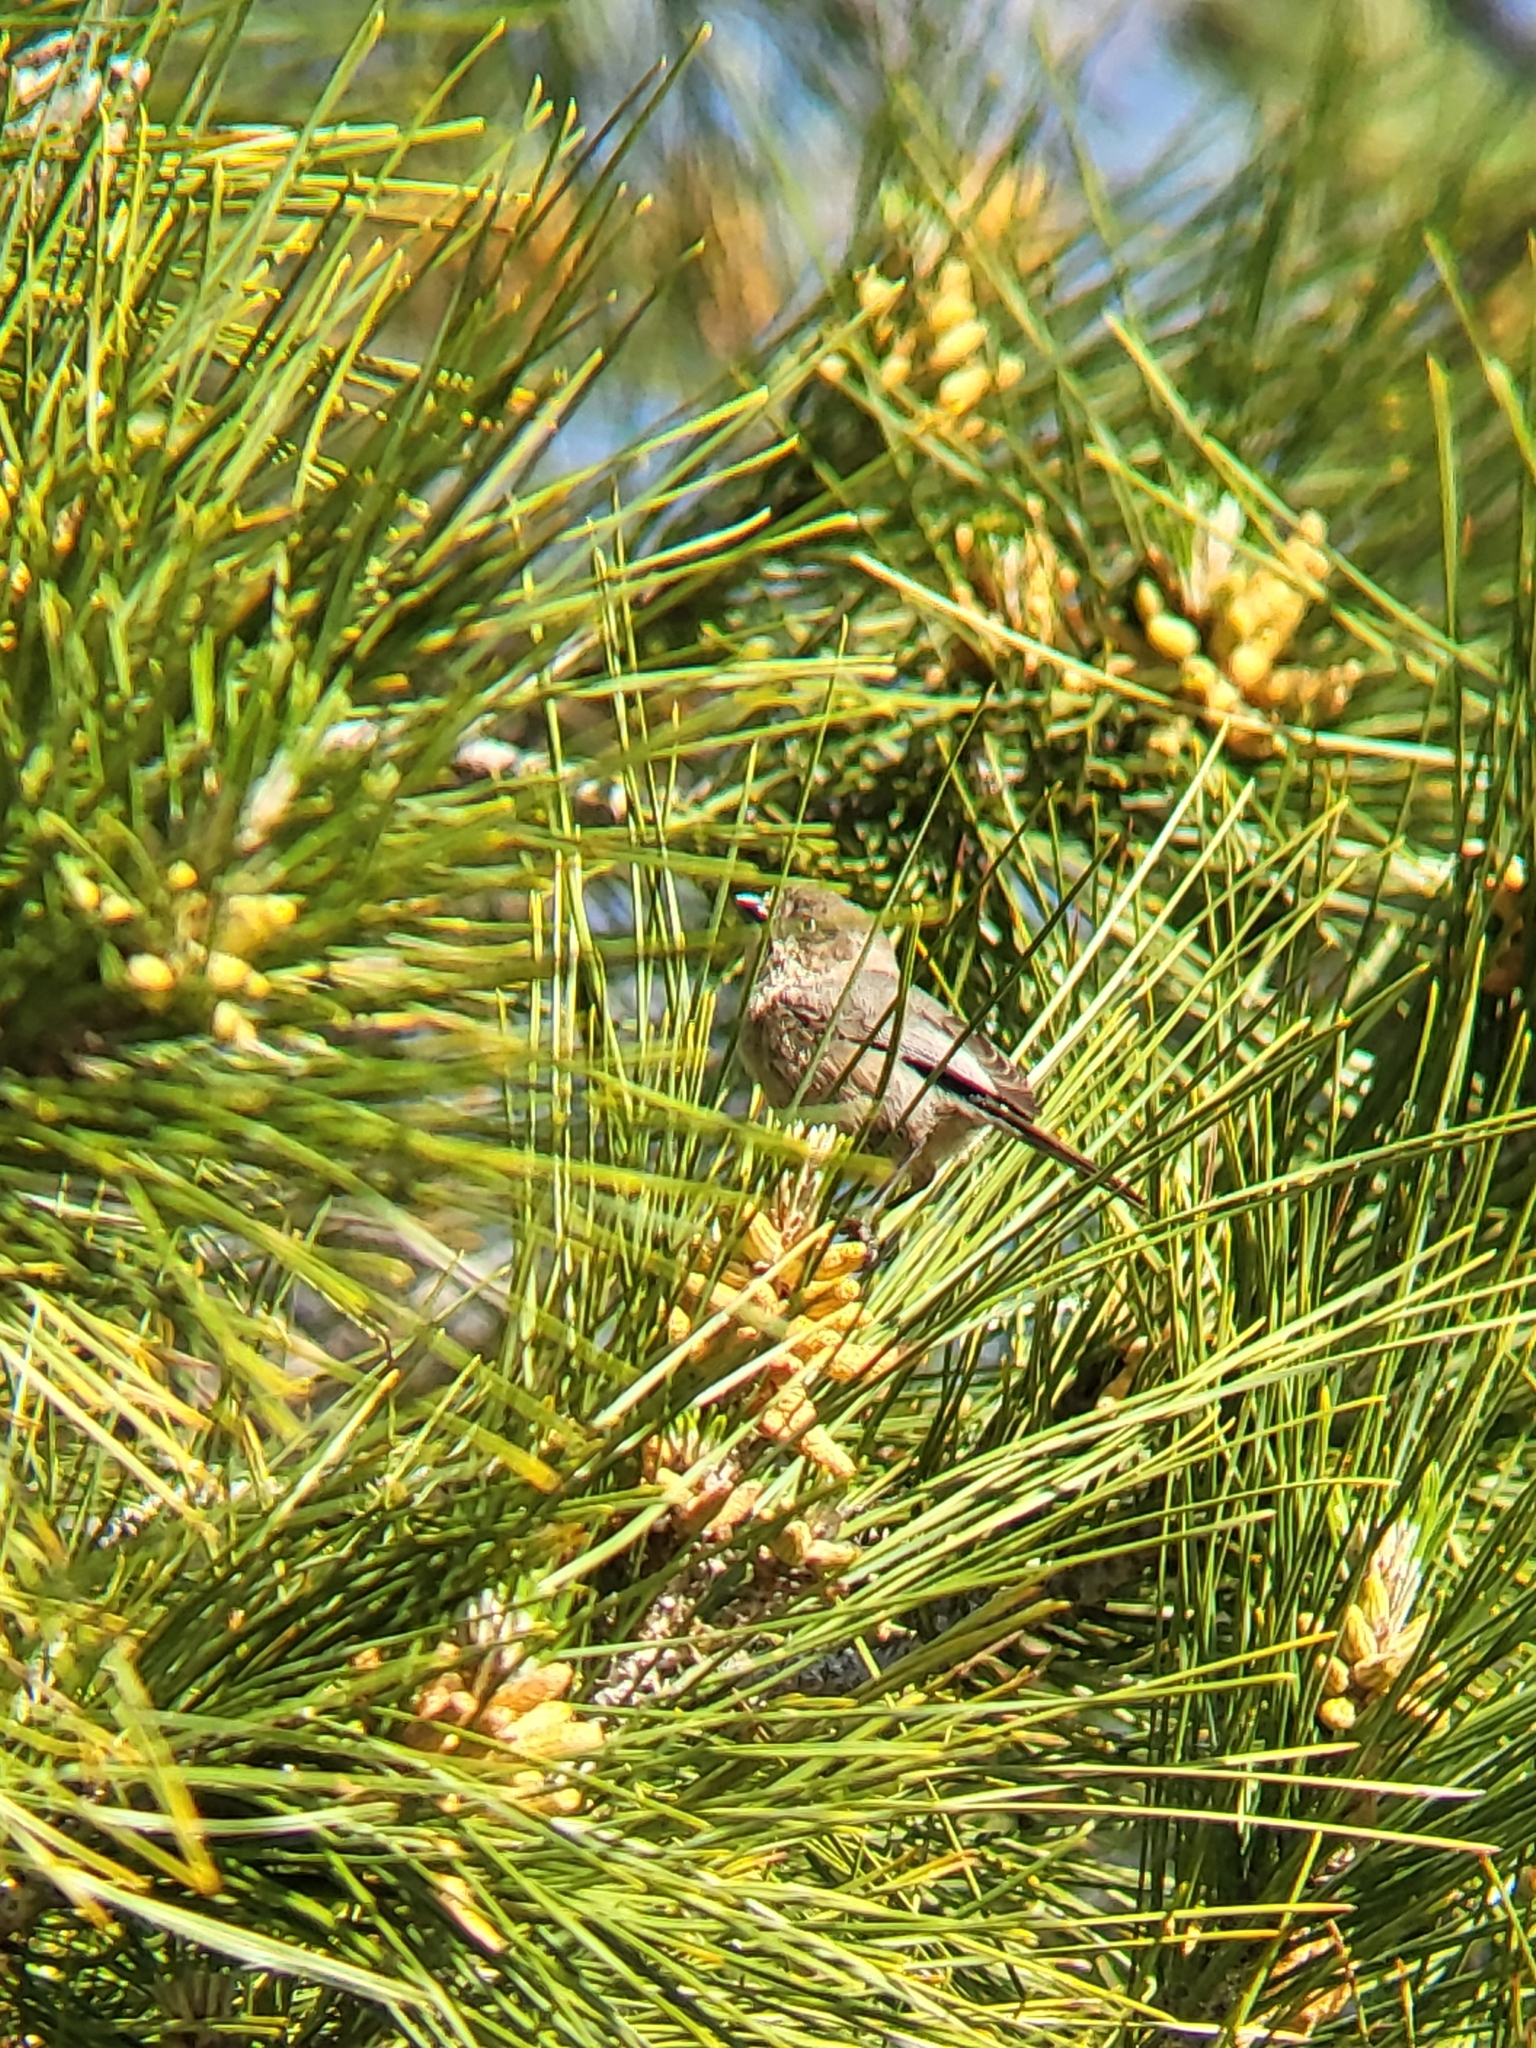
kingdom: Animalia
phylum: Chordata
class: Aves
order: Passeriformes
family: Aegithalidae
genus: Psaltriparus
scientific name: Psaltriparus minimus
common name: American bushtit
